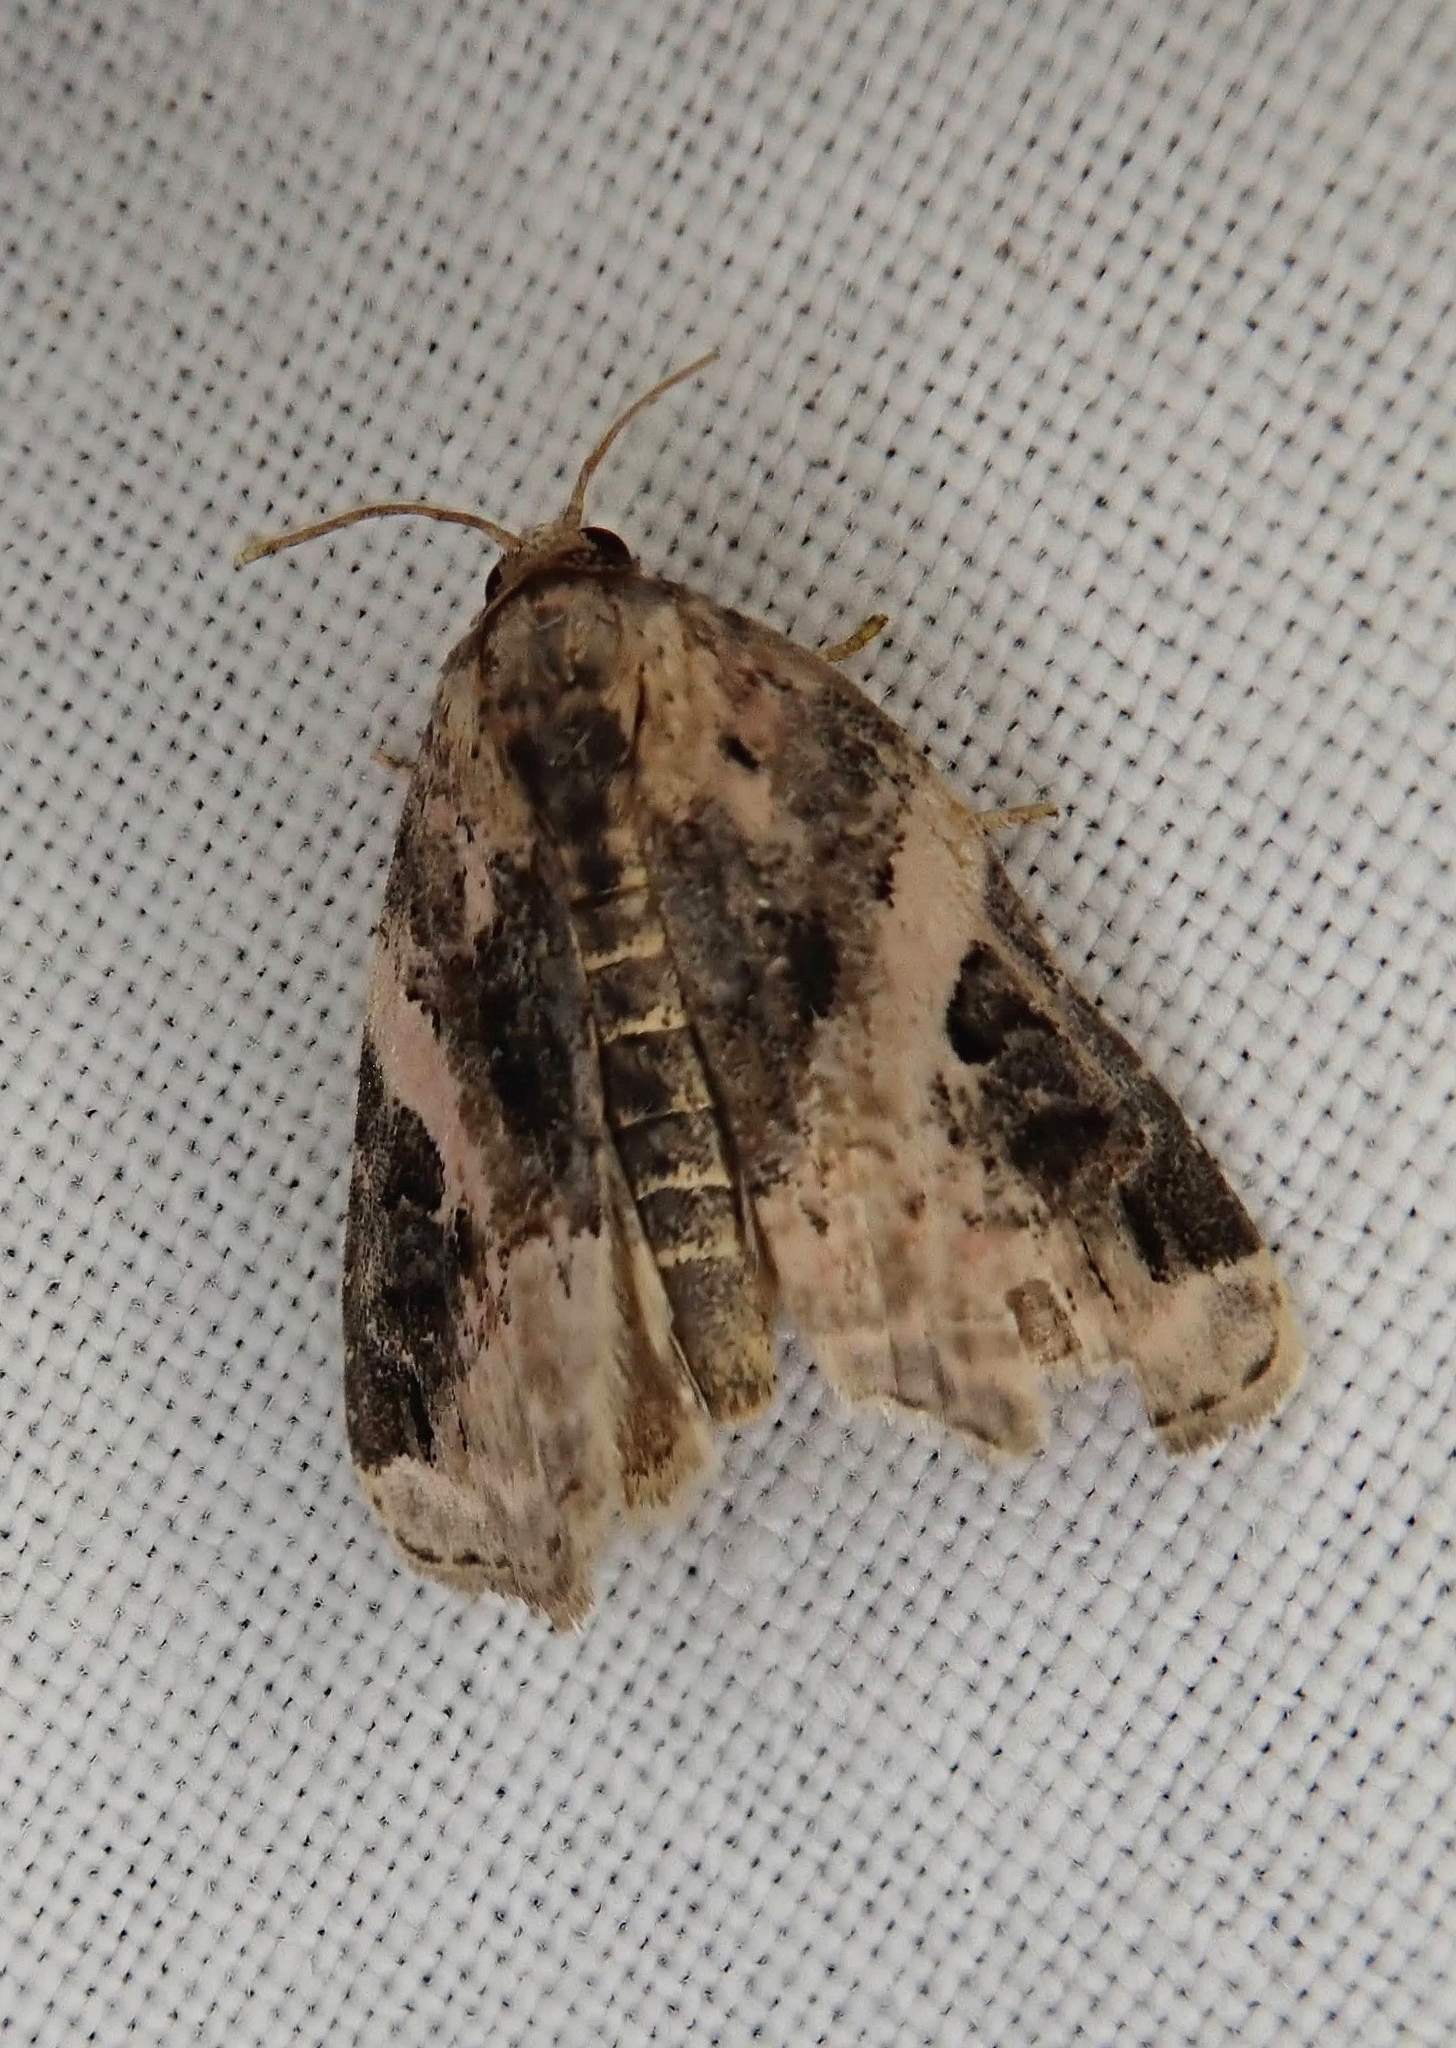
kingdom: Animalia
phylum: Arthropoda
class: Insecta
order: Lepidoptera
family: Noctuidae
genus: Pseudeustrotia
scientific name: Pseudeustrotia carneola
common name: Pink-barred lithacodia moth
